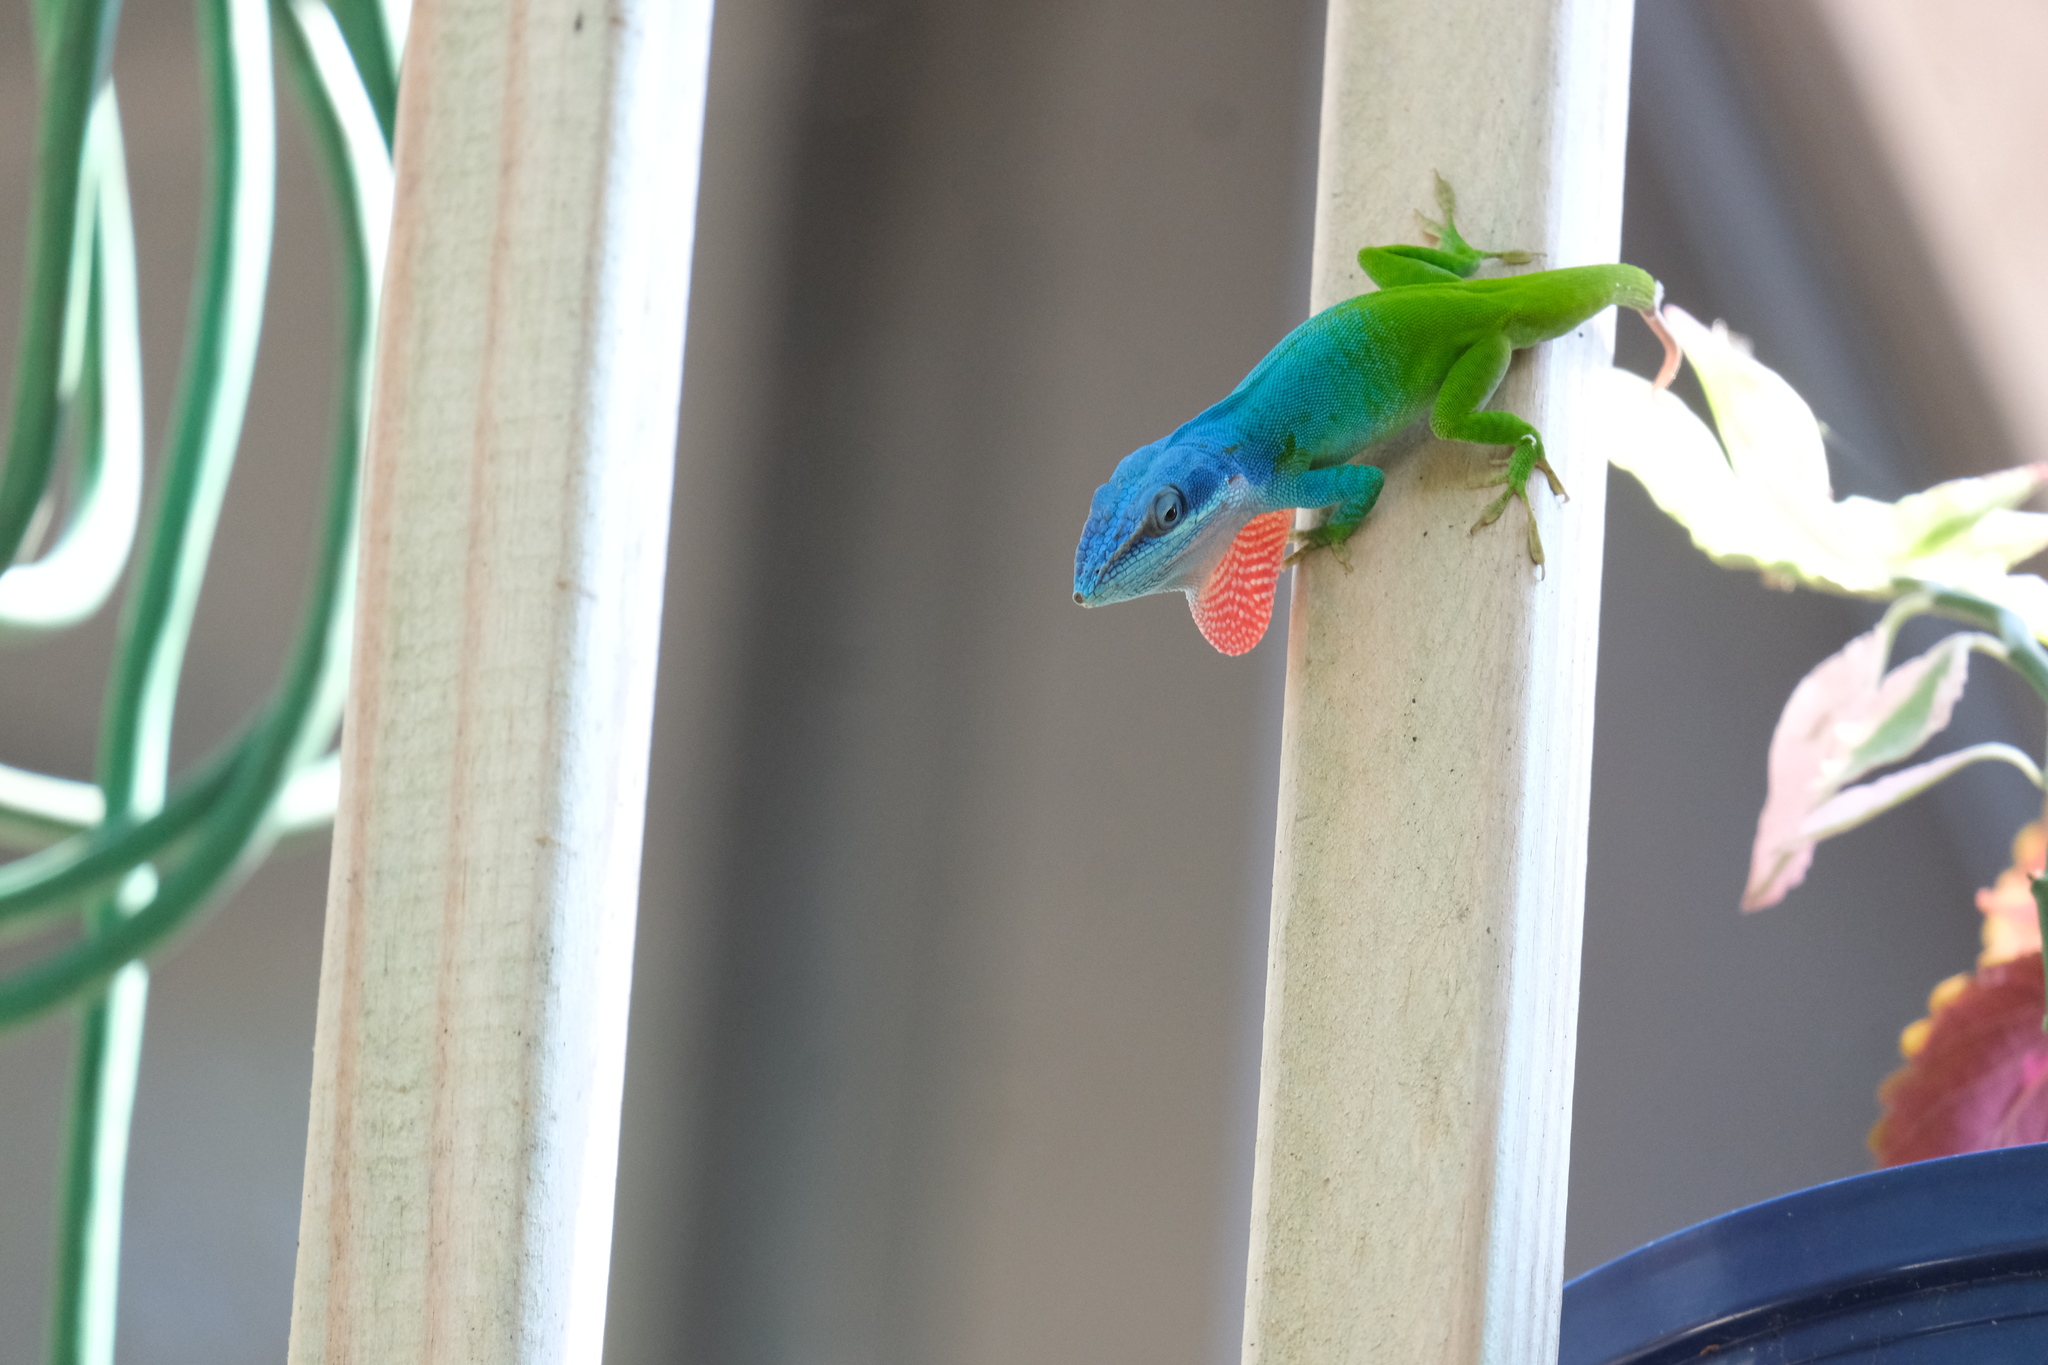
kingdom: Animalia
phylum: Chordata
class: Squamata
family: Dactyloidae
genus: Anolis
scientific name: Anolis allisoni
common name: Allison's anole
